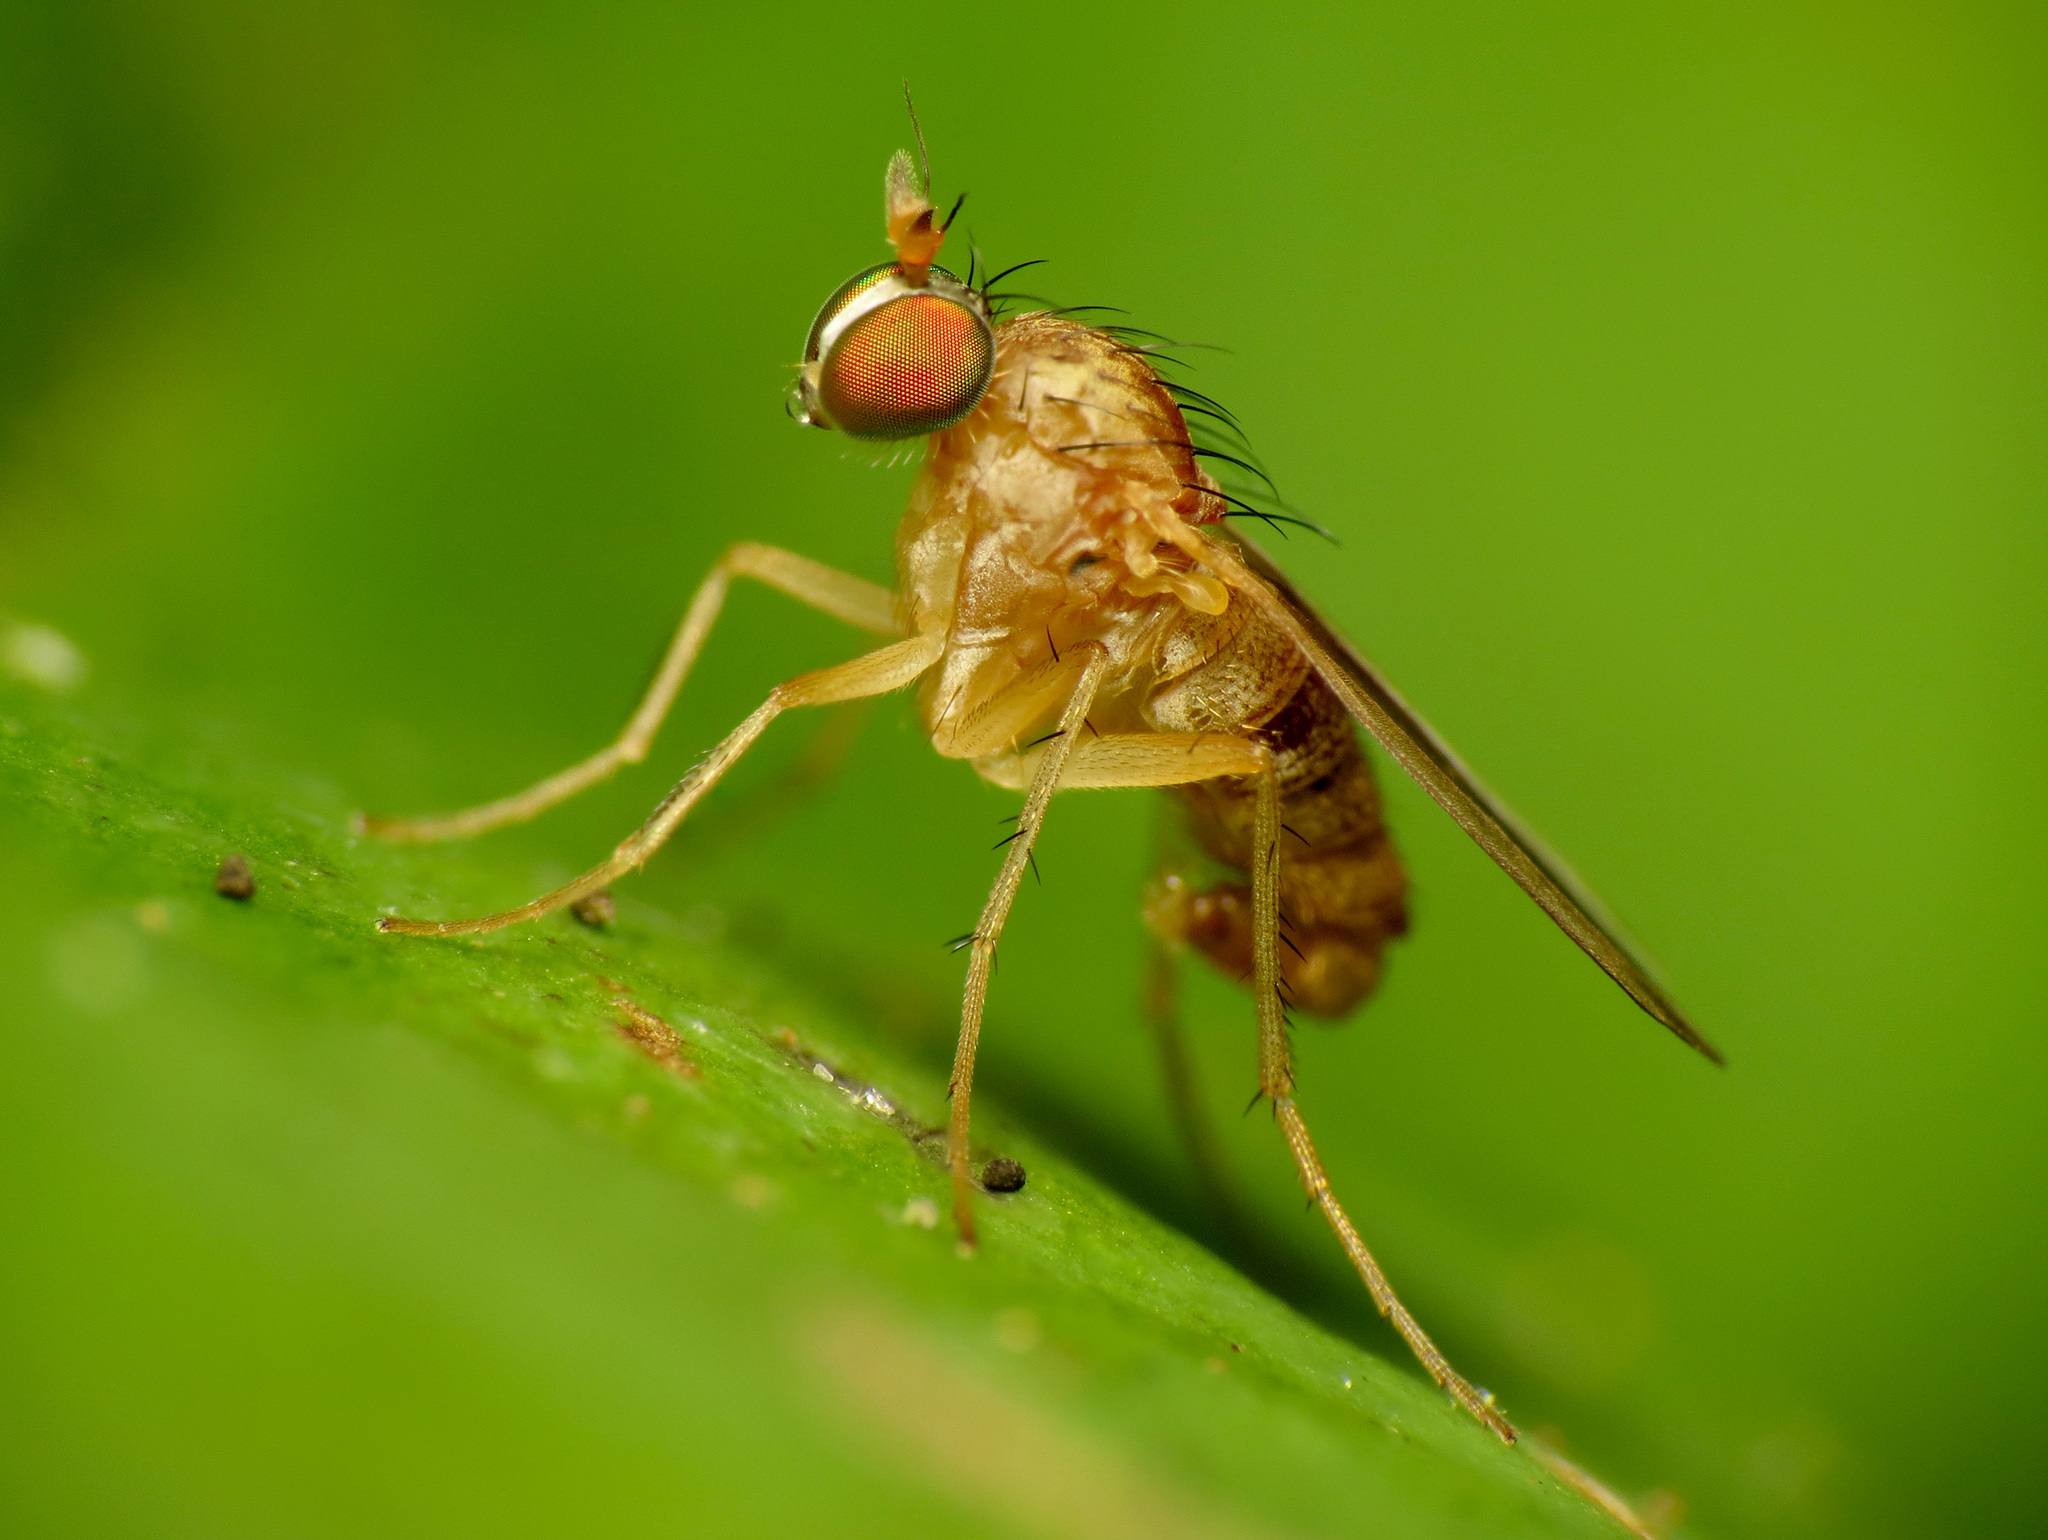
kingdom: Animalia
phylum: Arthropoda
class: Insecta
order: Diptera
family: Dolichopodidae
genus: Gymnopternus
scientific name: Gymnopternus flavus
